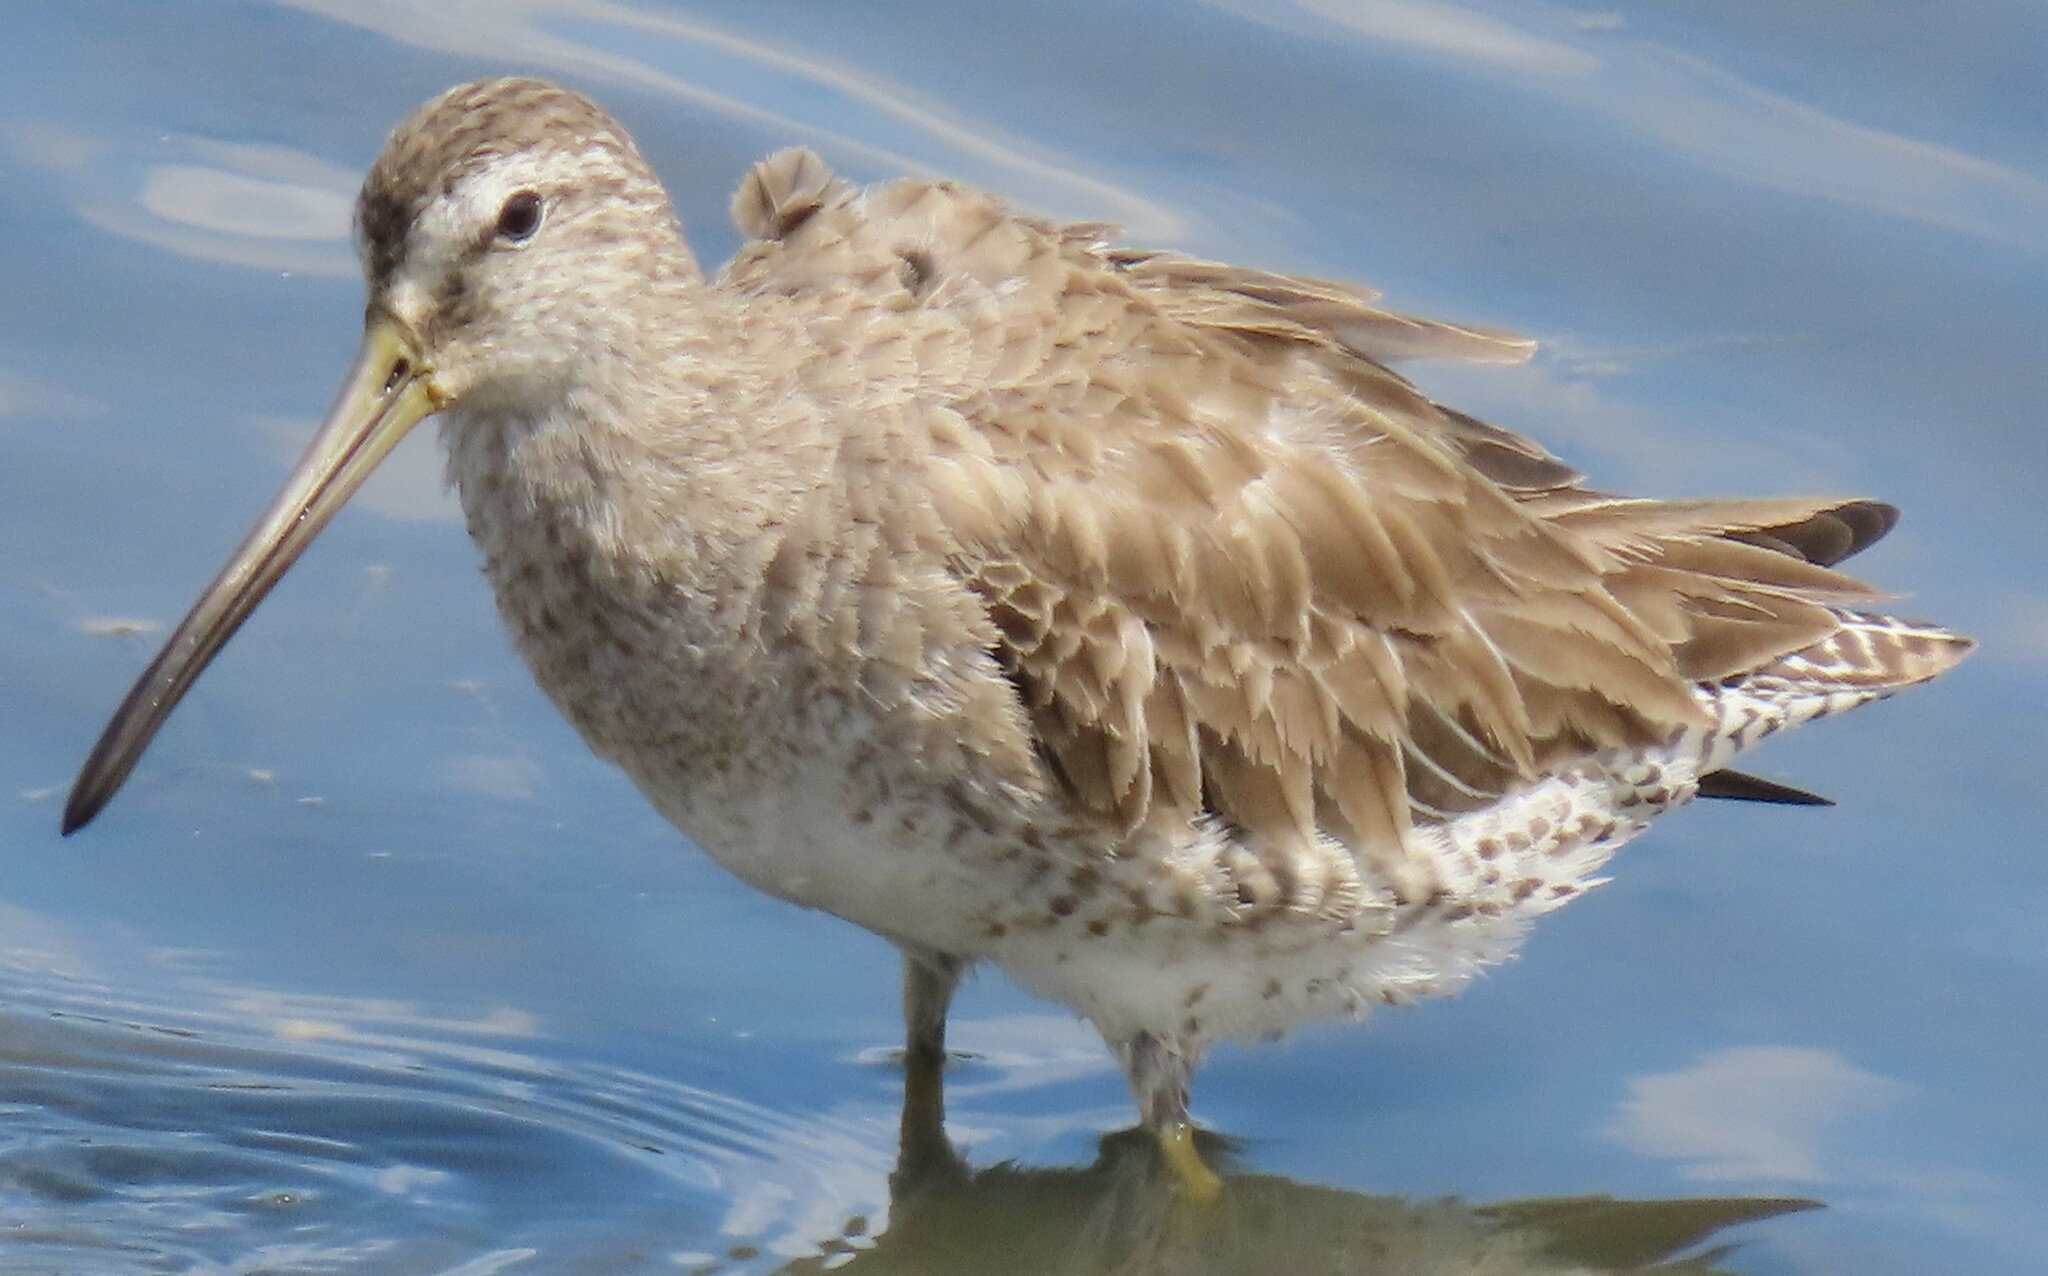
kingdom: Animalia
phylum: Chordata
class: Aves
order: Charadriiformes
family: Scolopacidae
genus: Limnodromus
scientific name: Limnodromus griseus
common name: Short-billed dowitcher
